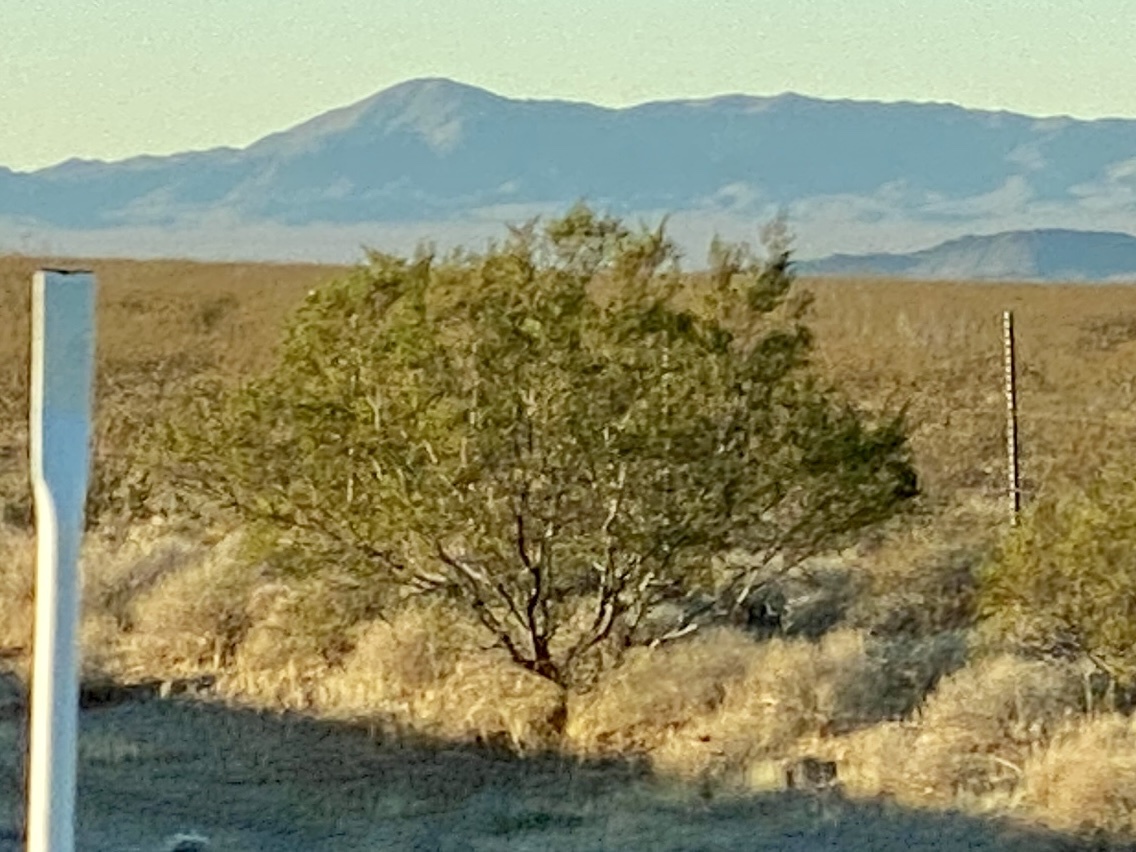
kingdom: Plantae
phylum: Tracheophyta
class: Magnoliopsida
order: Zygophyllales
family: Zygophyllaceae
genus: Larrea
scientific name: Larrea tridentata
